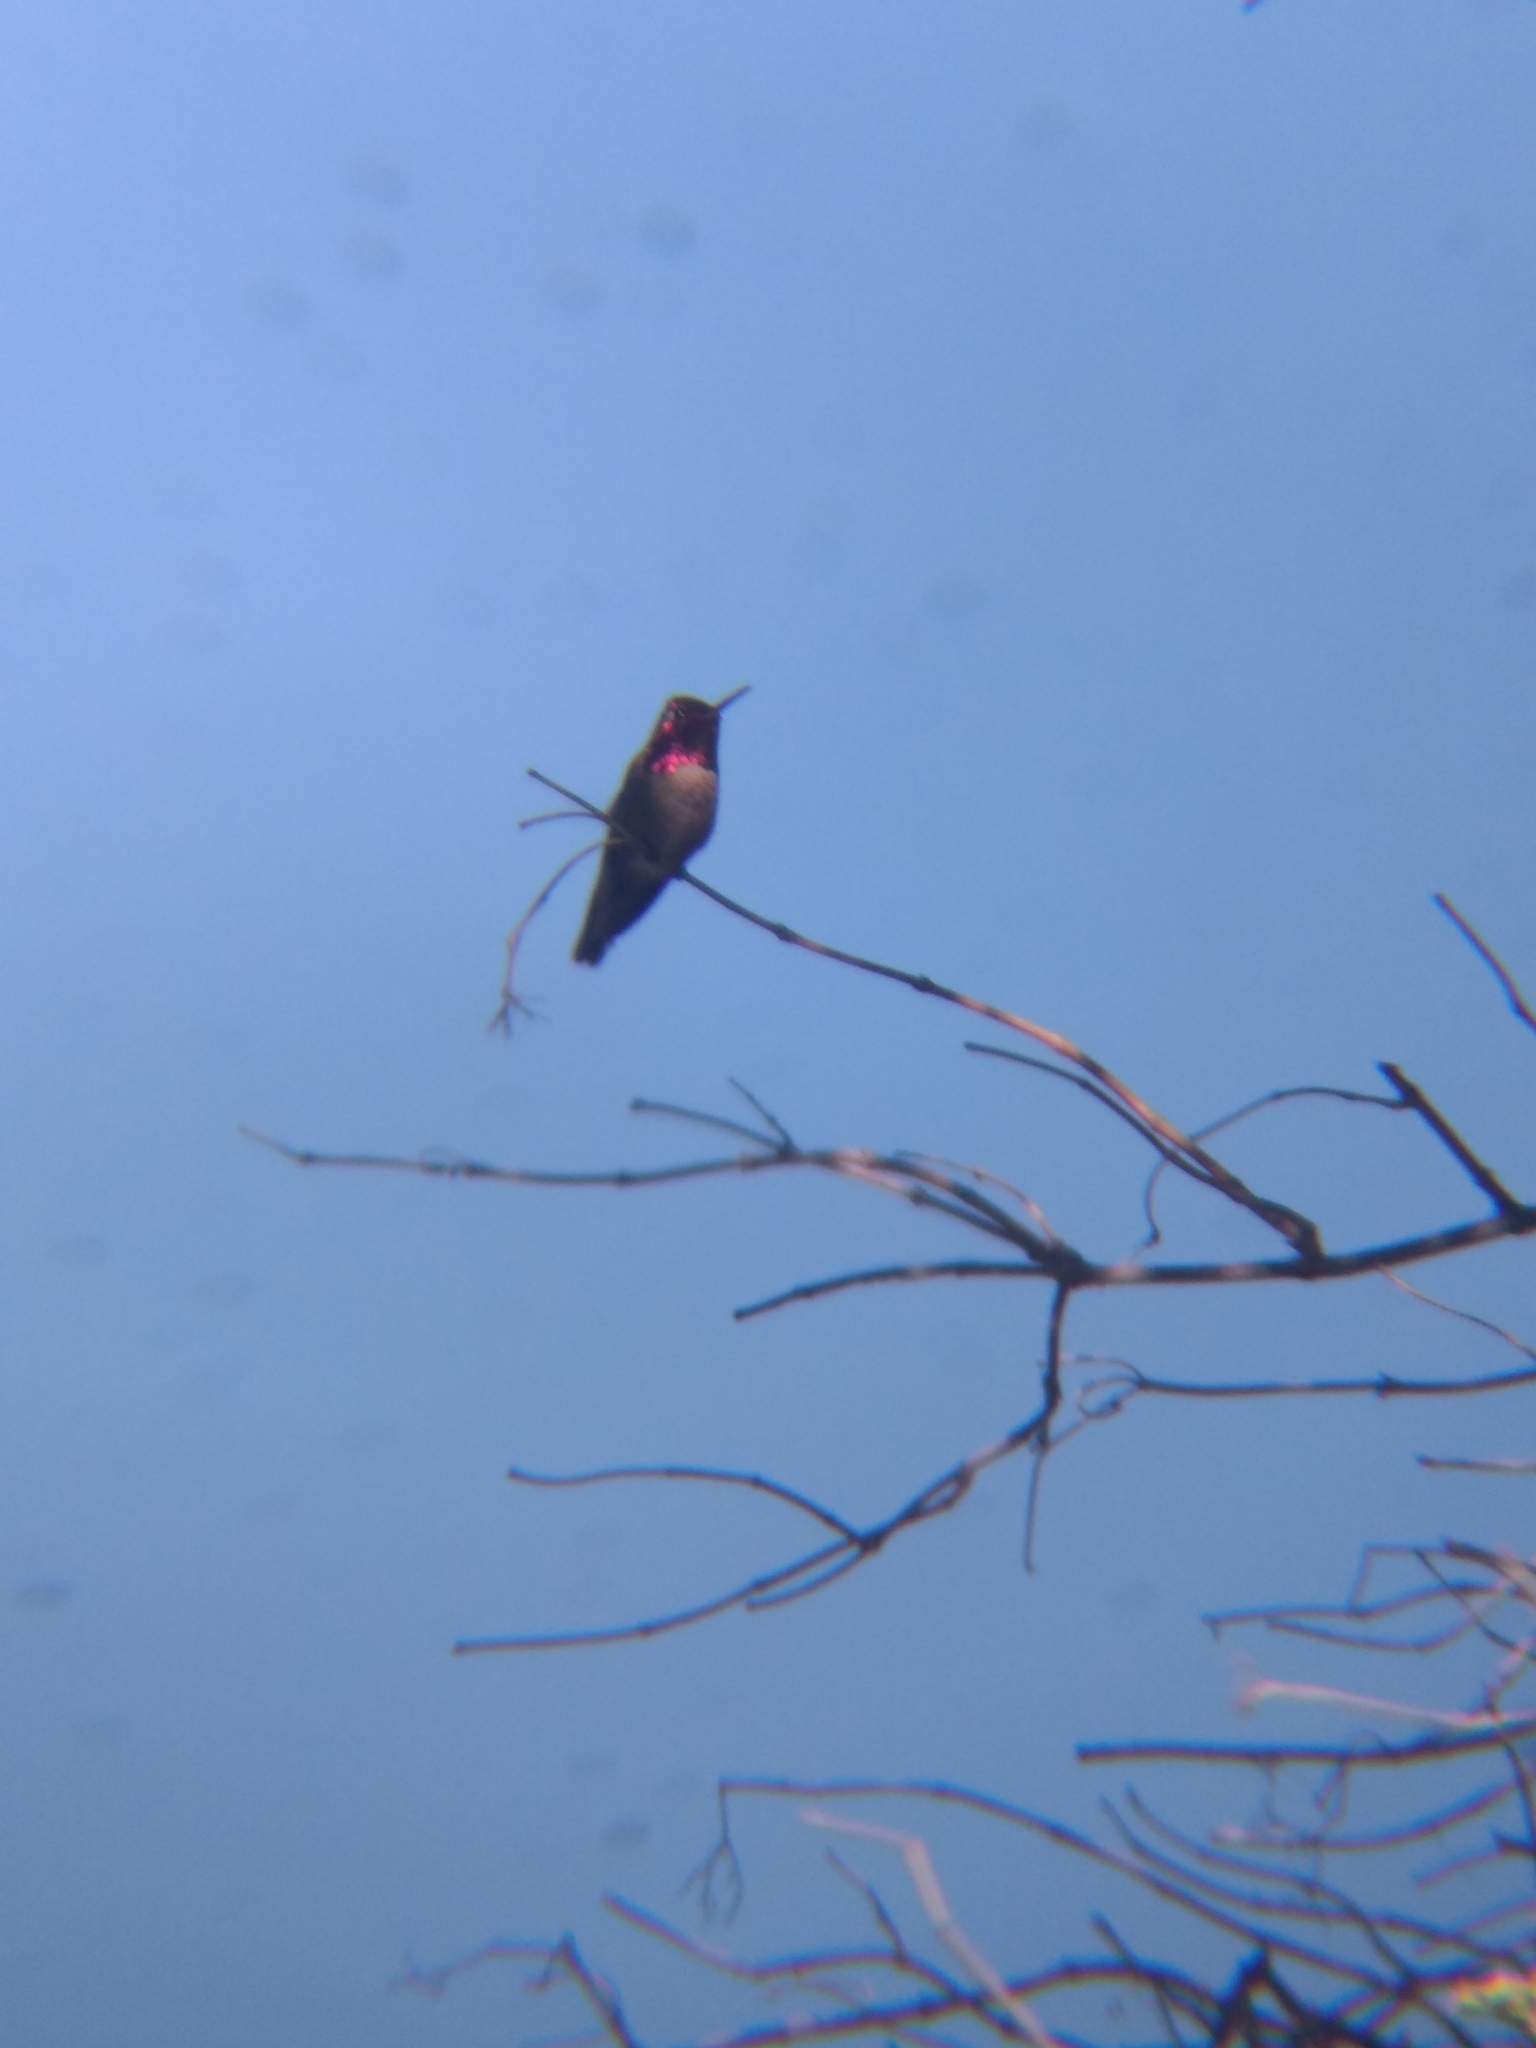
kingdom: Animalia
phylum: Chordata
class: Aves
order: Apodiformes
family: Trochilidae
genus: Calypte
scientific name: Calypte anna
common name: Anna's hummingbird
